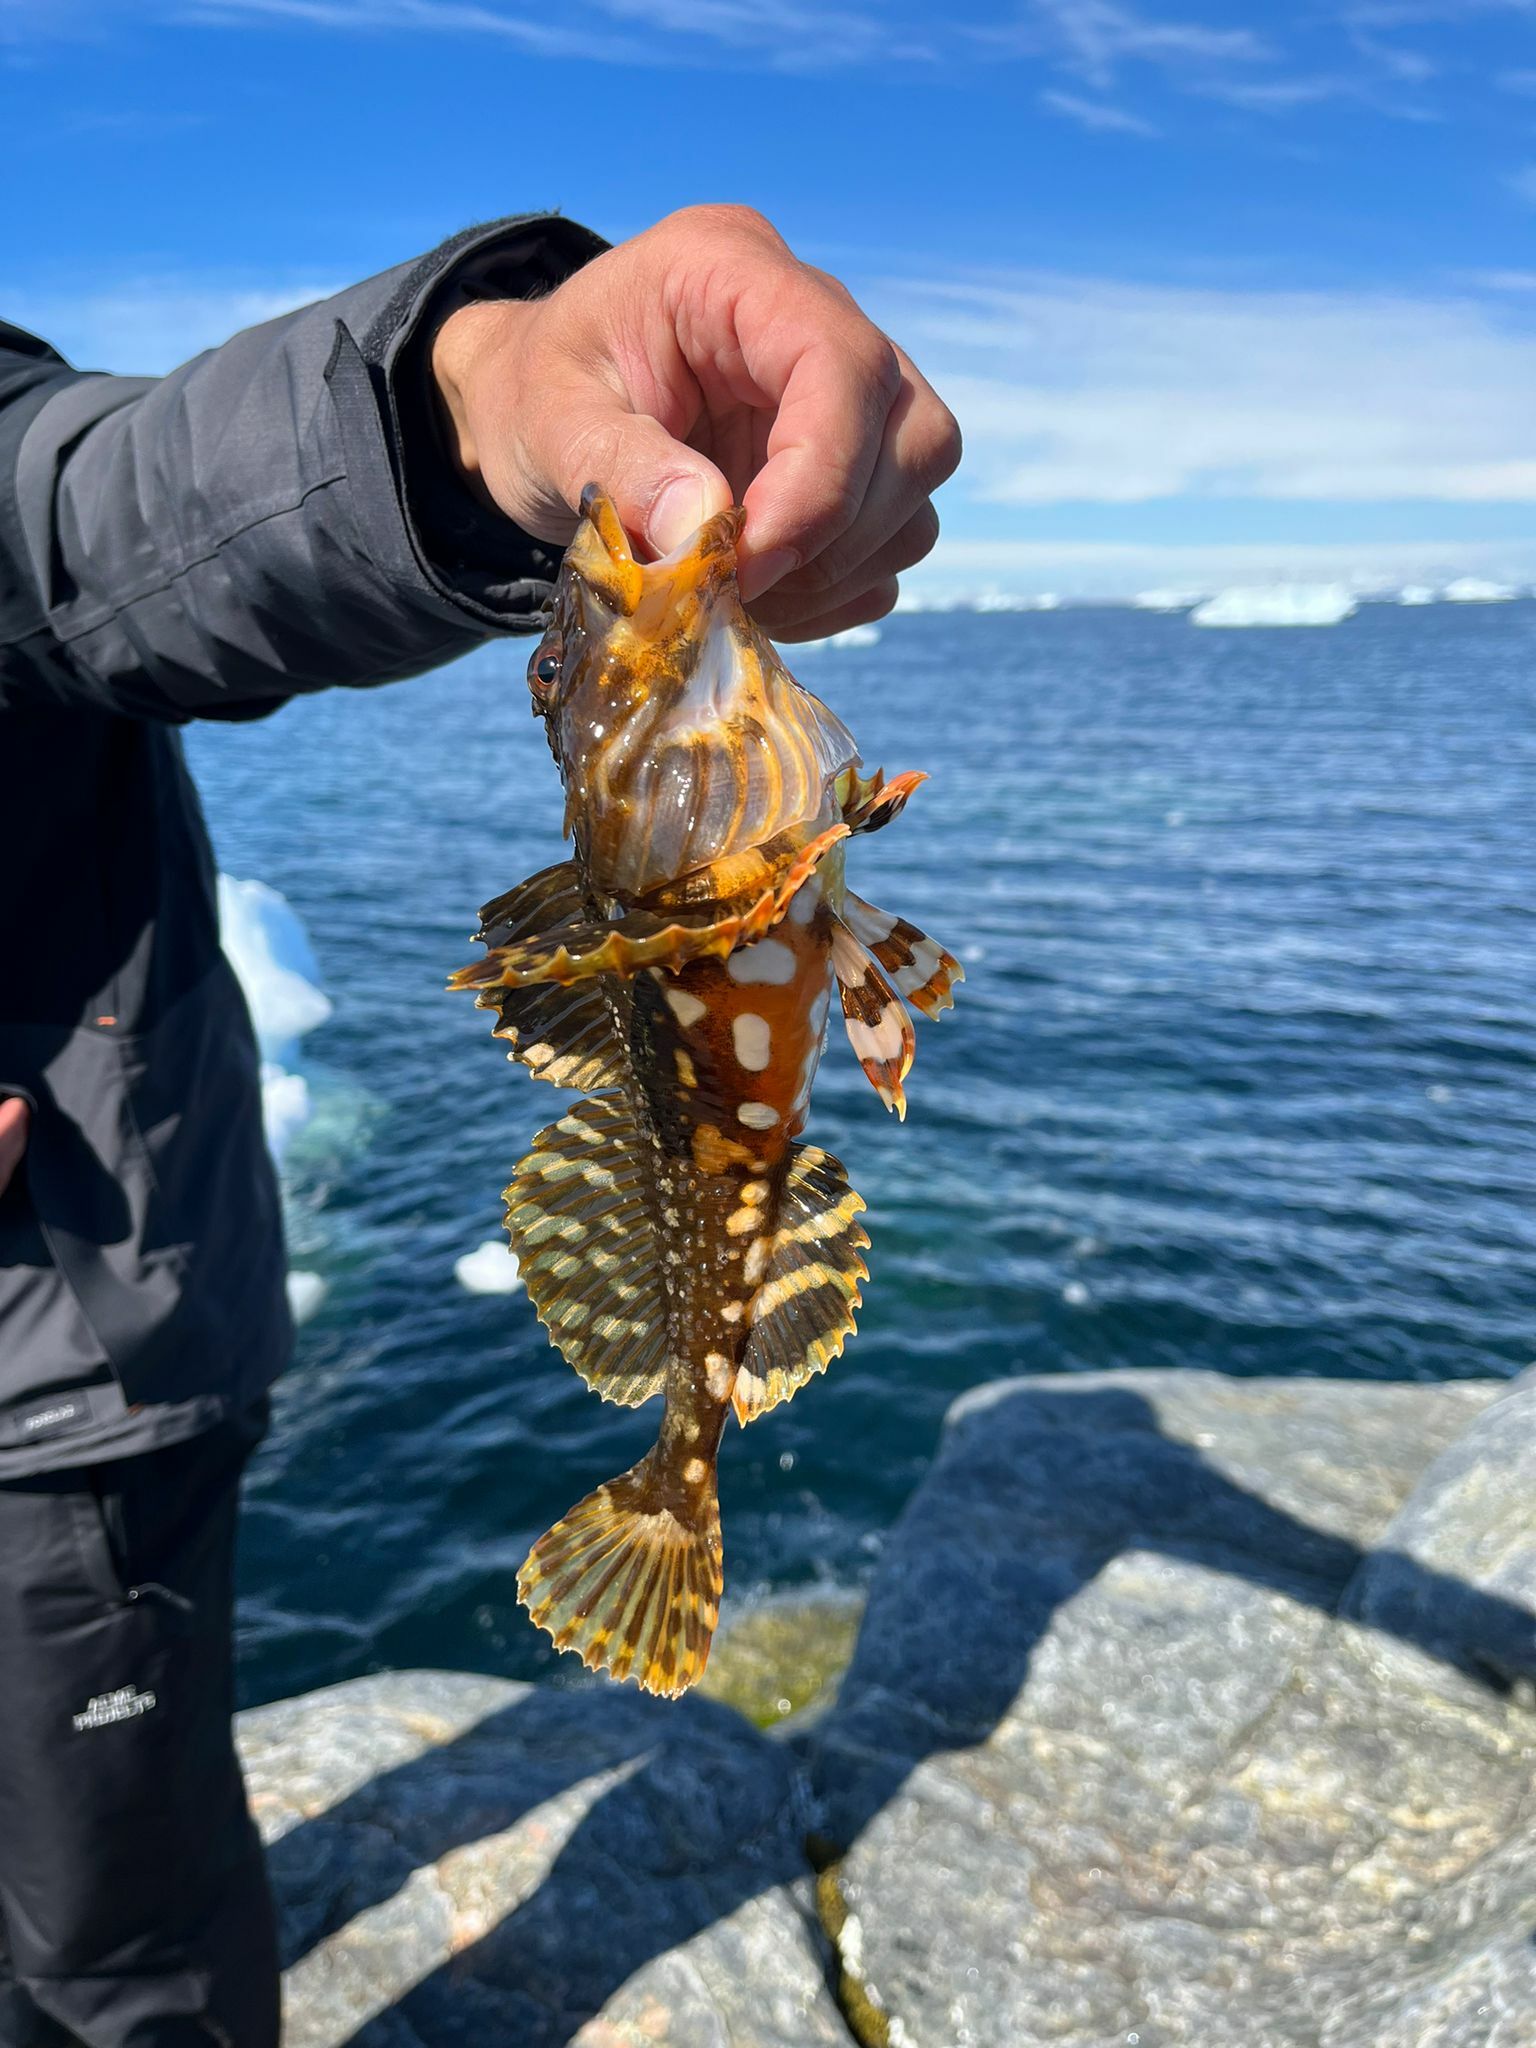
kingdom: Animalia
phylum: Chordata
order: Scorpaeniformes
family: Cottidae
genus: Myoxocephalus
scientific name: Myoxocephalus scorpius
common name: Shorthorn sculpin
